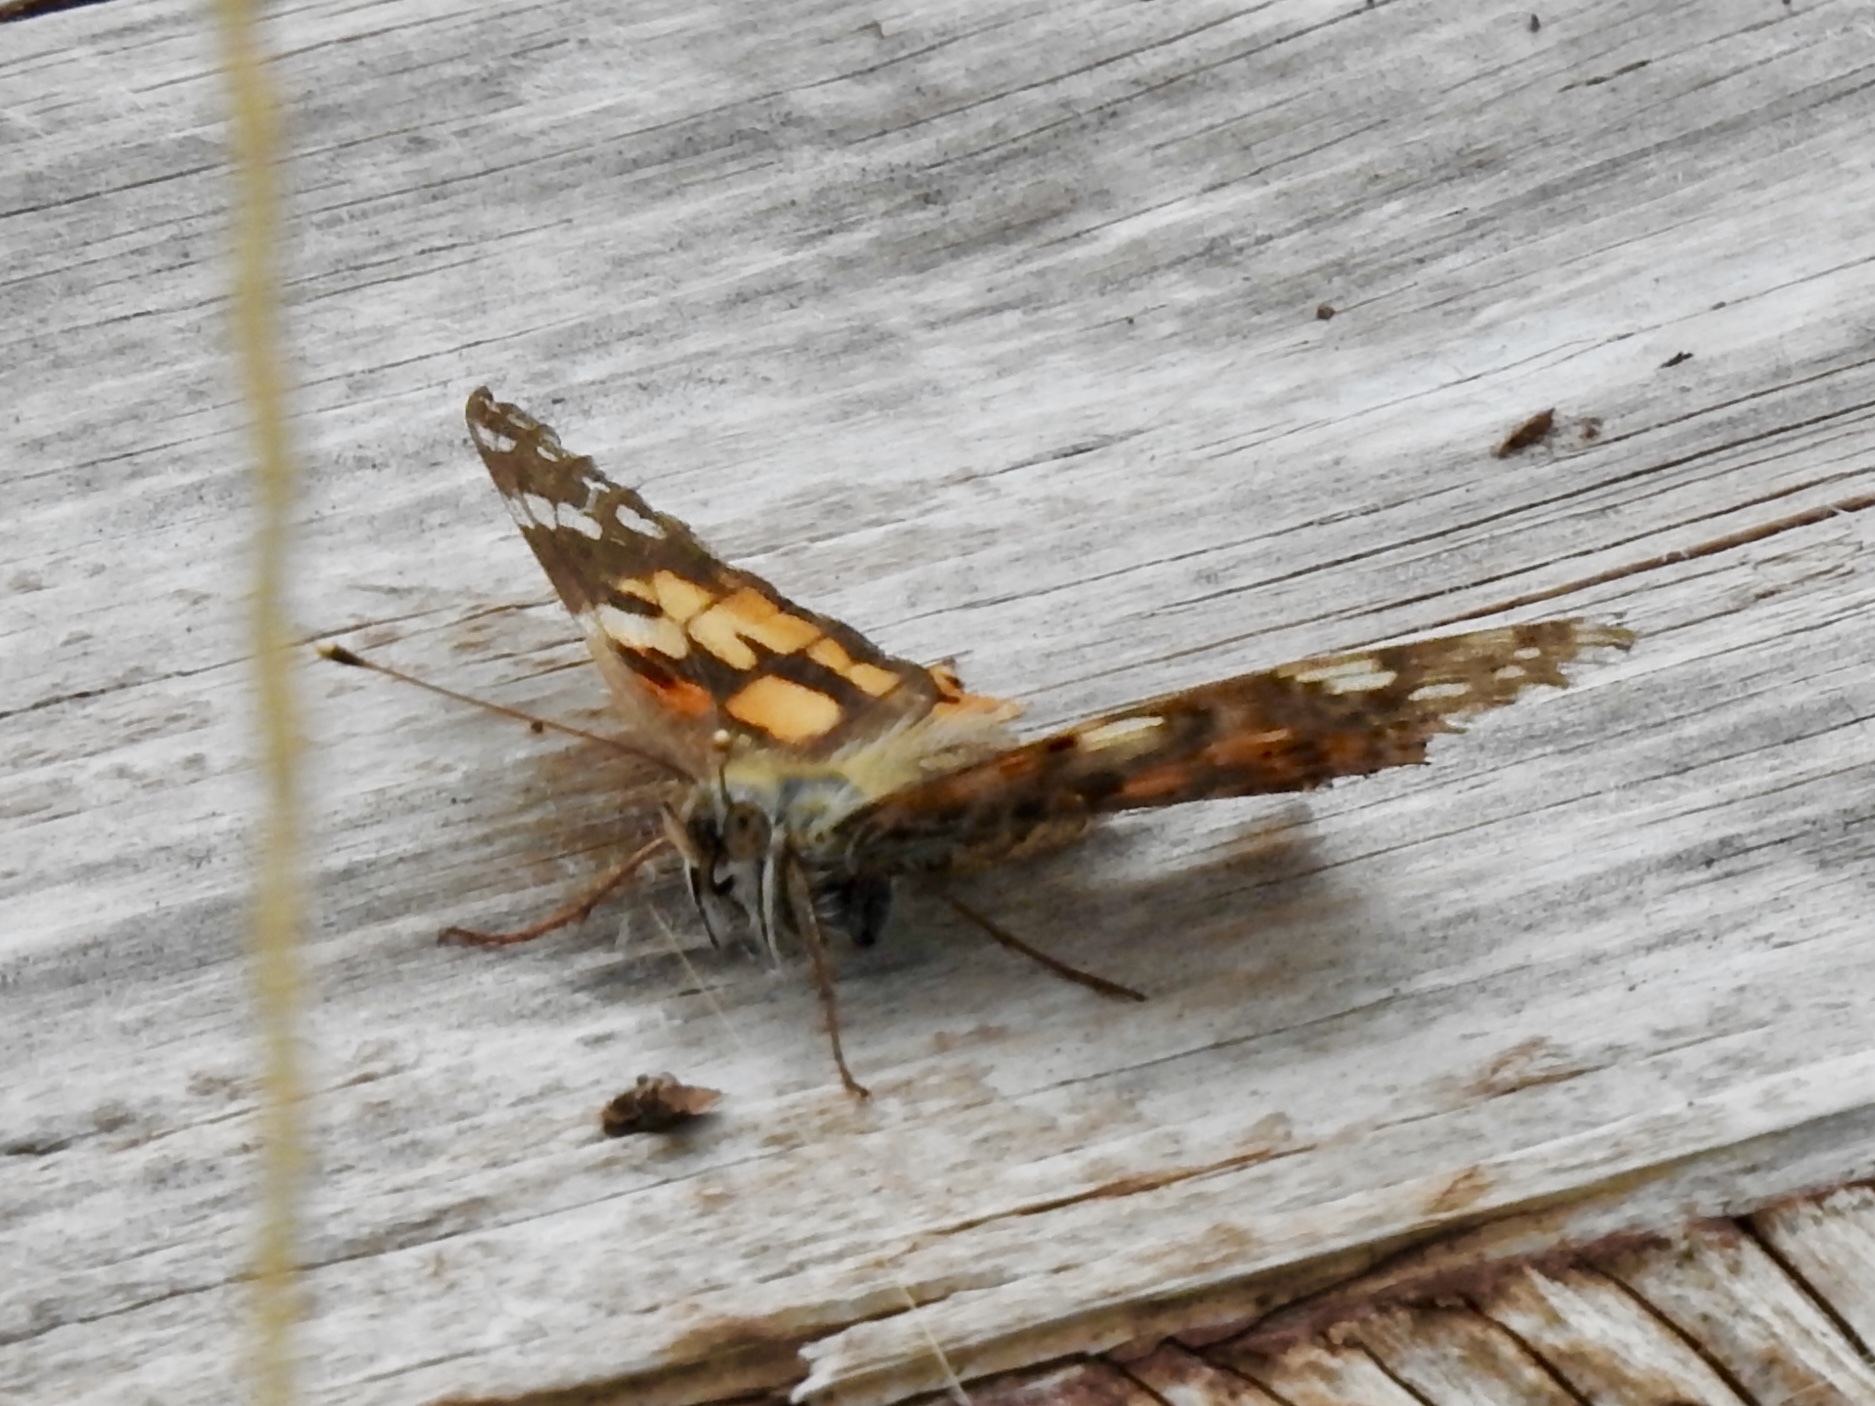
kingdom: Animalia
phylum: Arthropoda
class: Insecta
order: Lepidoptera
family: Nymphalidae
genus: Vanessa
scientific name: Vanessa cardui
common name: Painted lady
